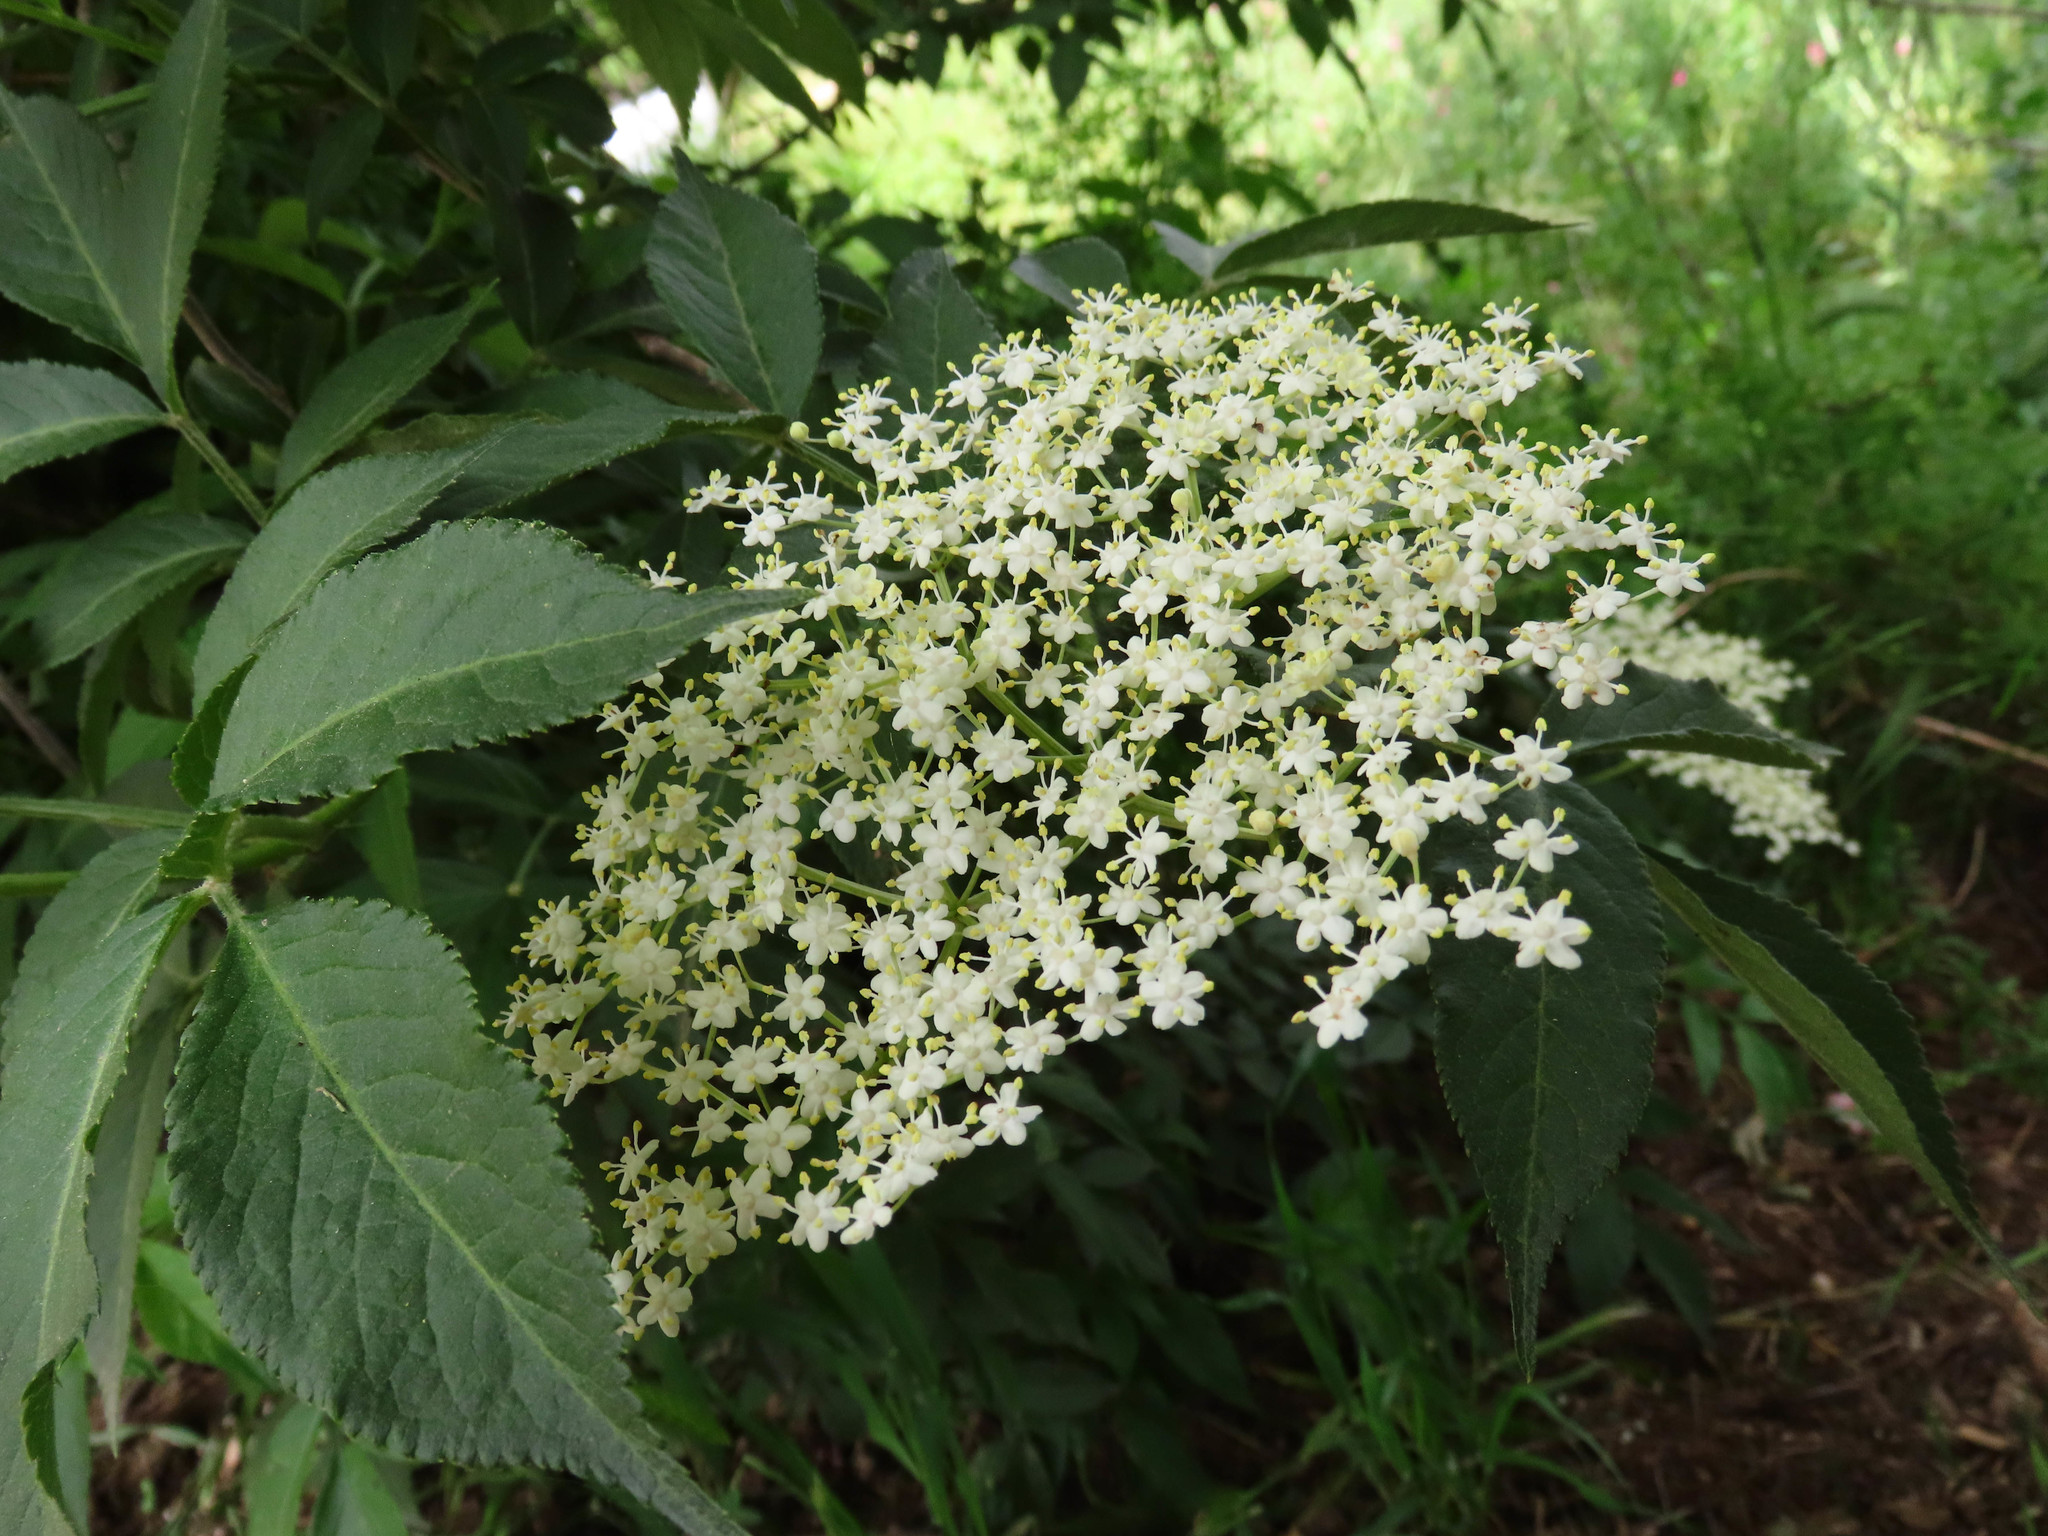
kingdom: Plantae
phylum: Tracheophyta
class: Magnoliopsida
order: Dipsacales
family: Viburnaceae
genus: Sambucus
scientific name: Sambucus nigra
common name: Elder
